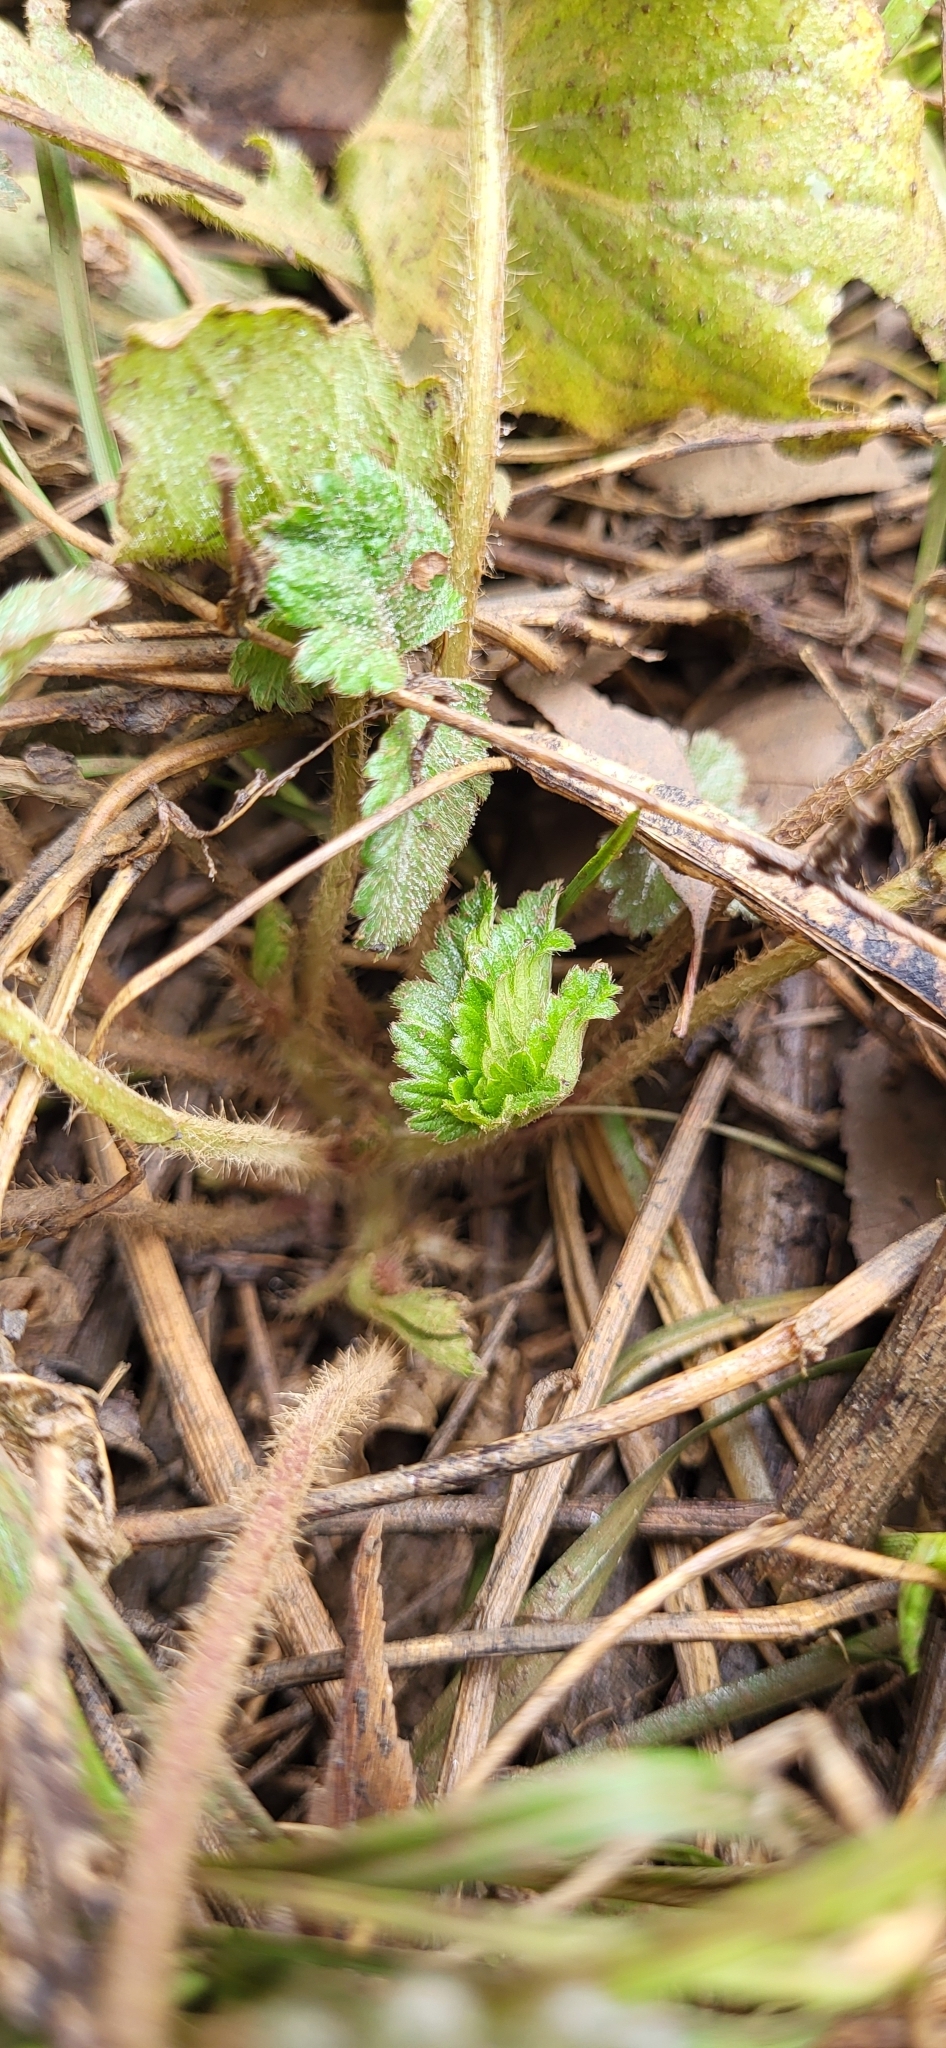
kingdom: Plantae
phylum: Tracheophyta
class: Magnoliopsida
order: Rosales
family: Rosaceae
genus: Potentilla
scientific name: Potentilla indica
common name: Yellow-flowered strawberry
